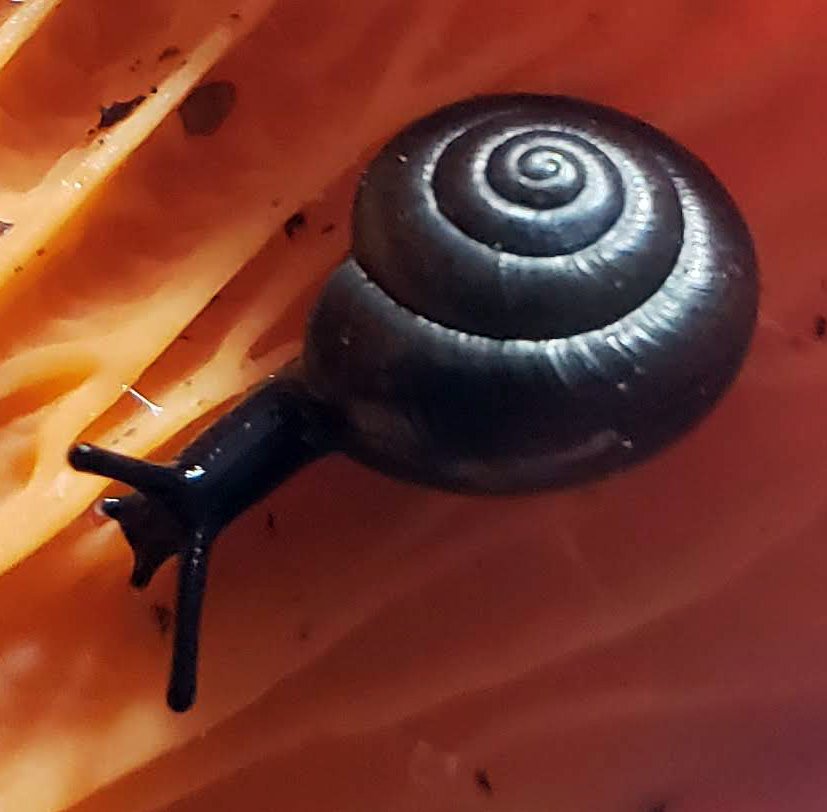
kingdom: Animalia
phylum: Mollusca
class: Gastropoda
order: Stylommatophora
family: Gastrodontidae
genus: Zonitoides
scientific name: Zonitoides
